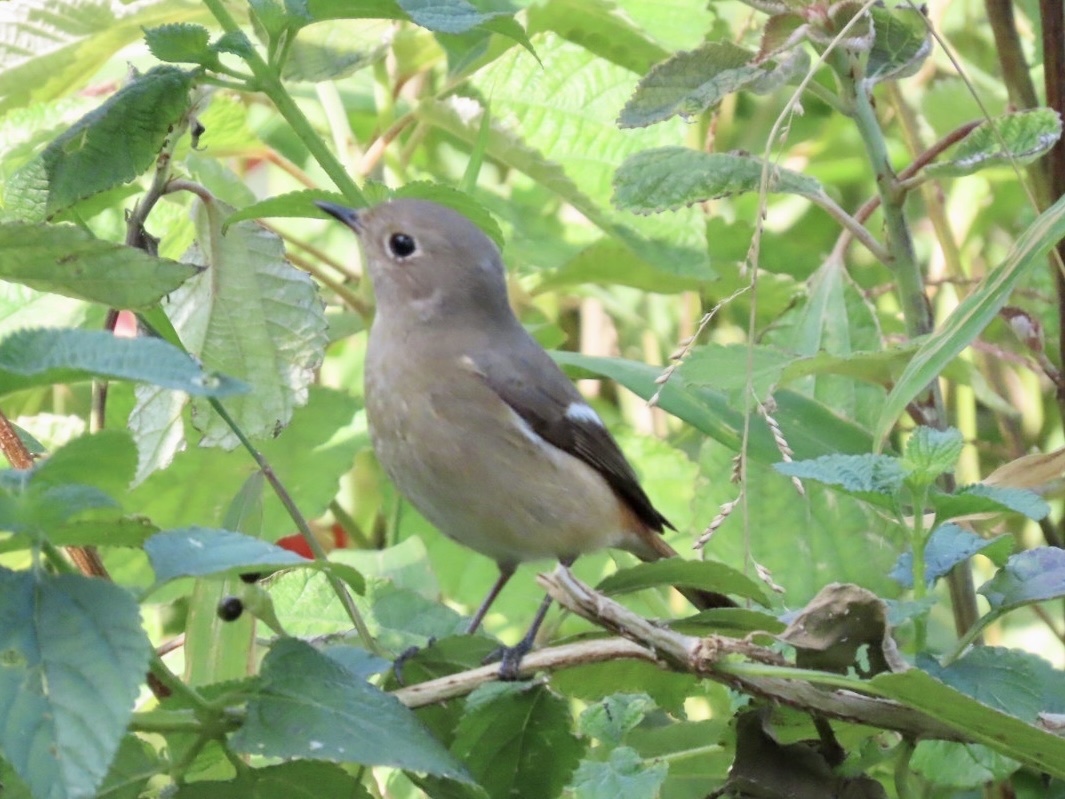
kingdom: Animalia
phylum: Chordata
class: Aves
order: Passeriformes
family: Muscicapidae
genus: Phoenicurus
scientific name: Phoenicurus auroreus
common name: Daurian redstart
